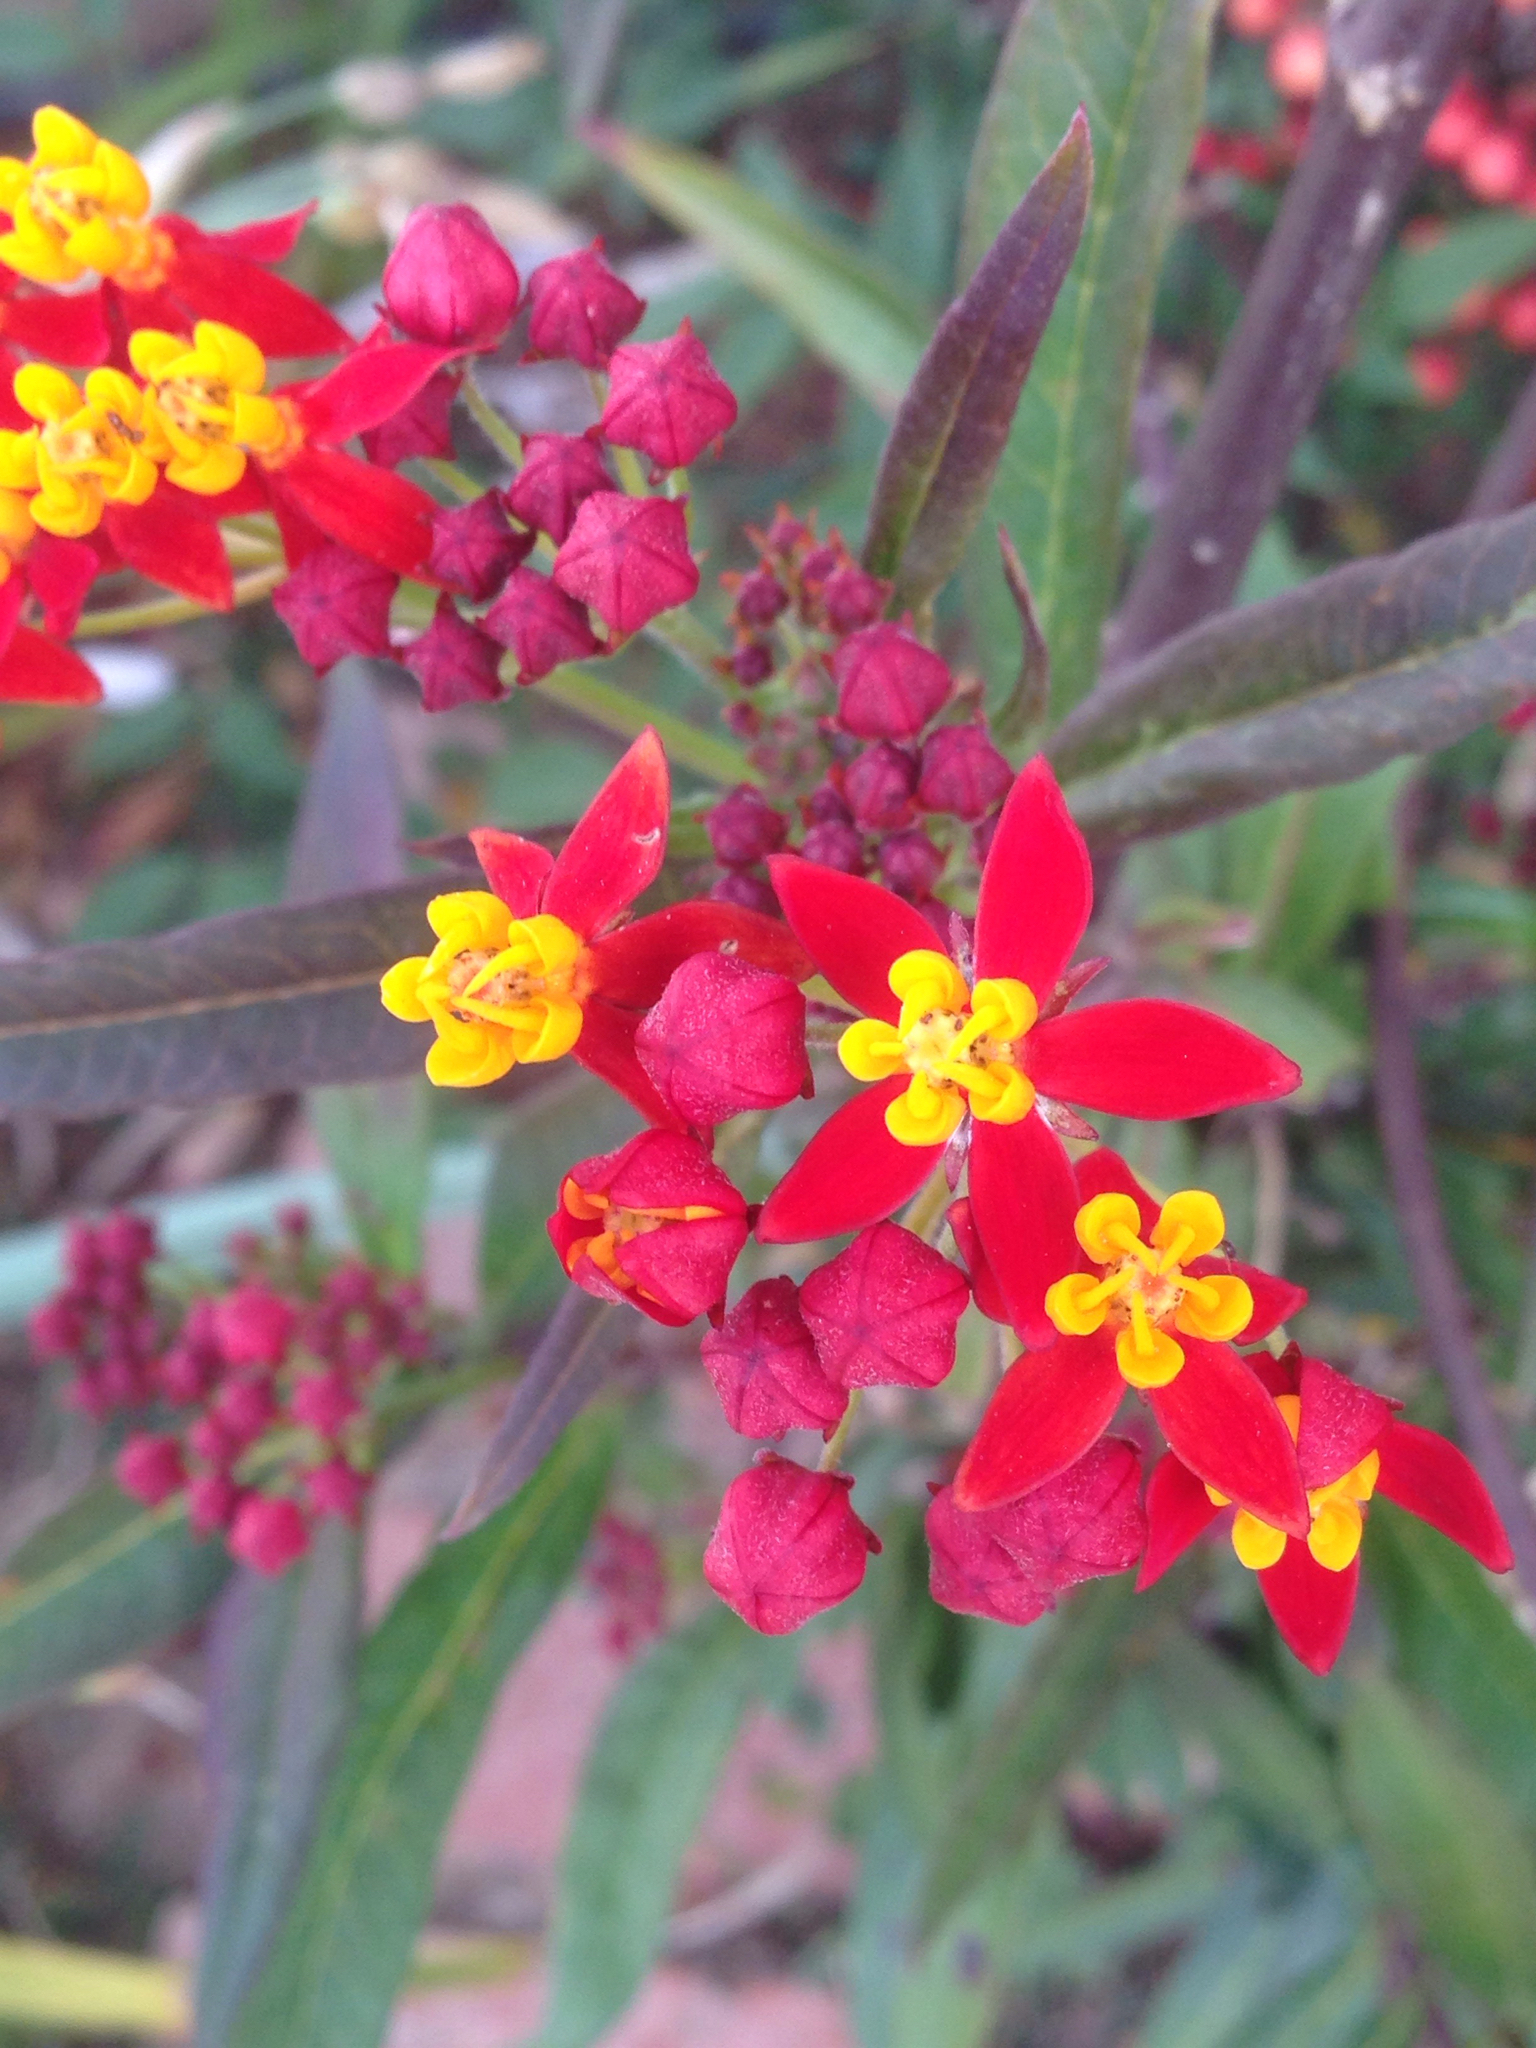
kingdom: Plantae
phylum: Tracheophyta
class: Magnoliopsida
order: Gentianales
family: Apocynaceae
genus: Asclepias
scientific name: Asclepias curassavica
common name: Bloodflower
